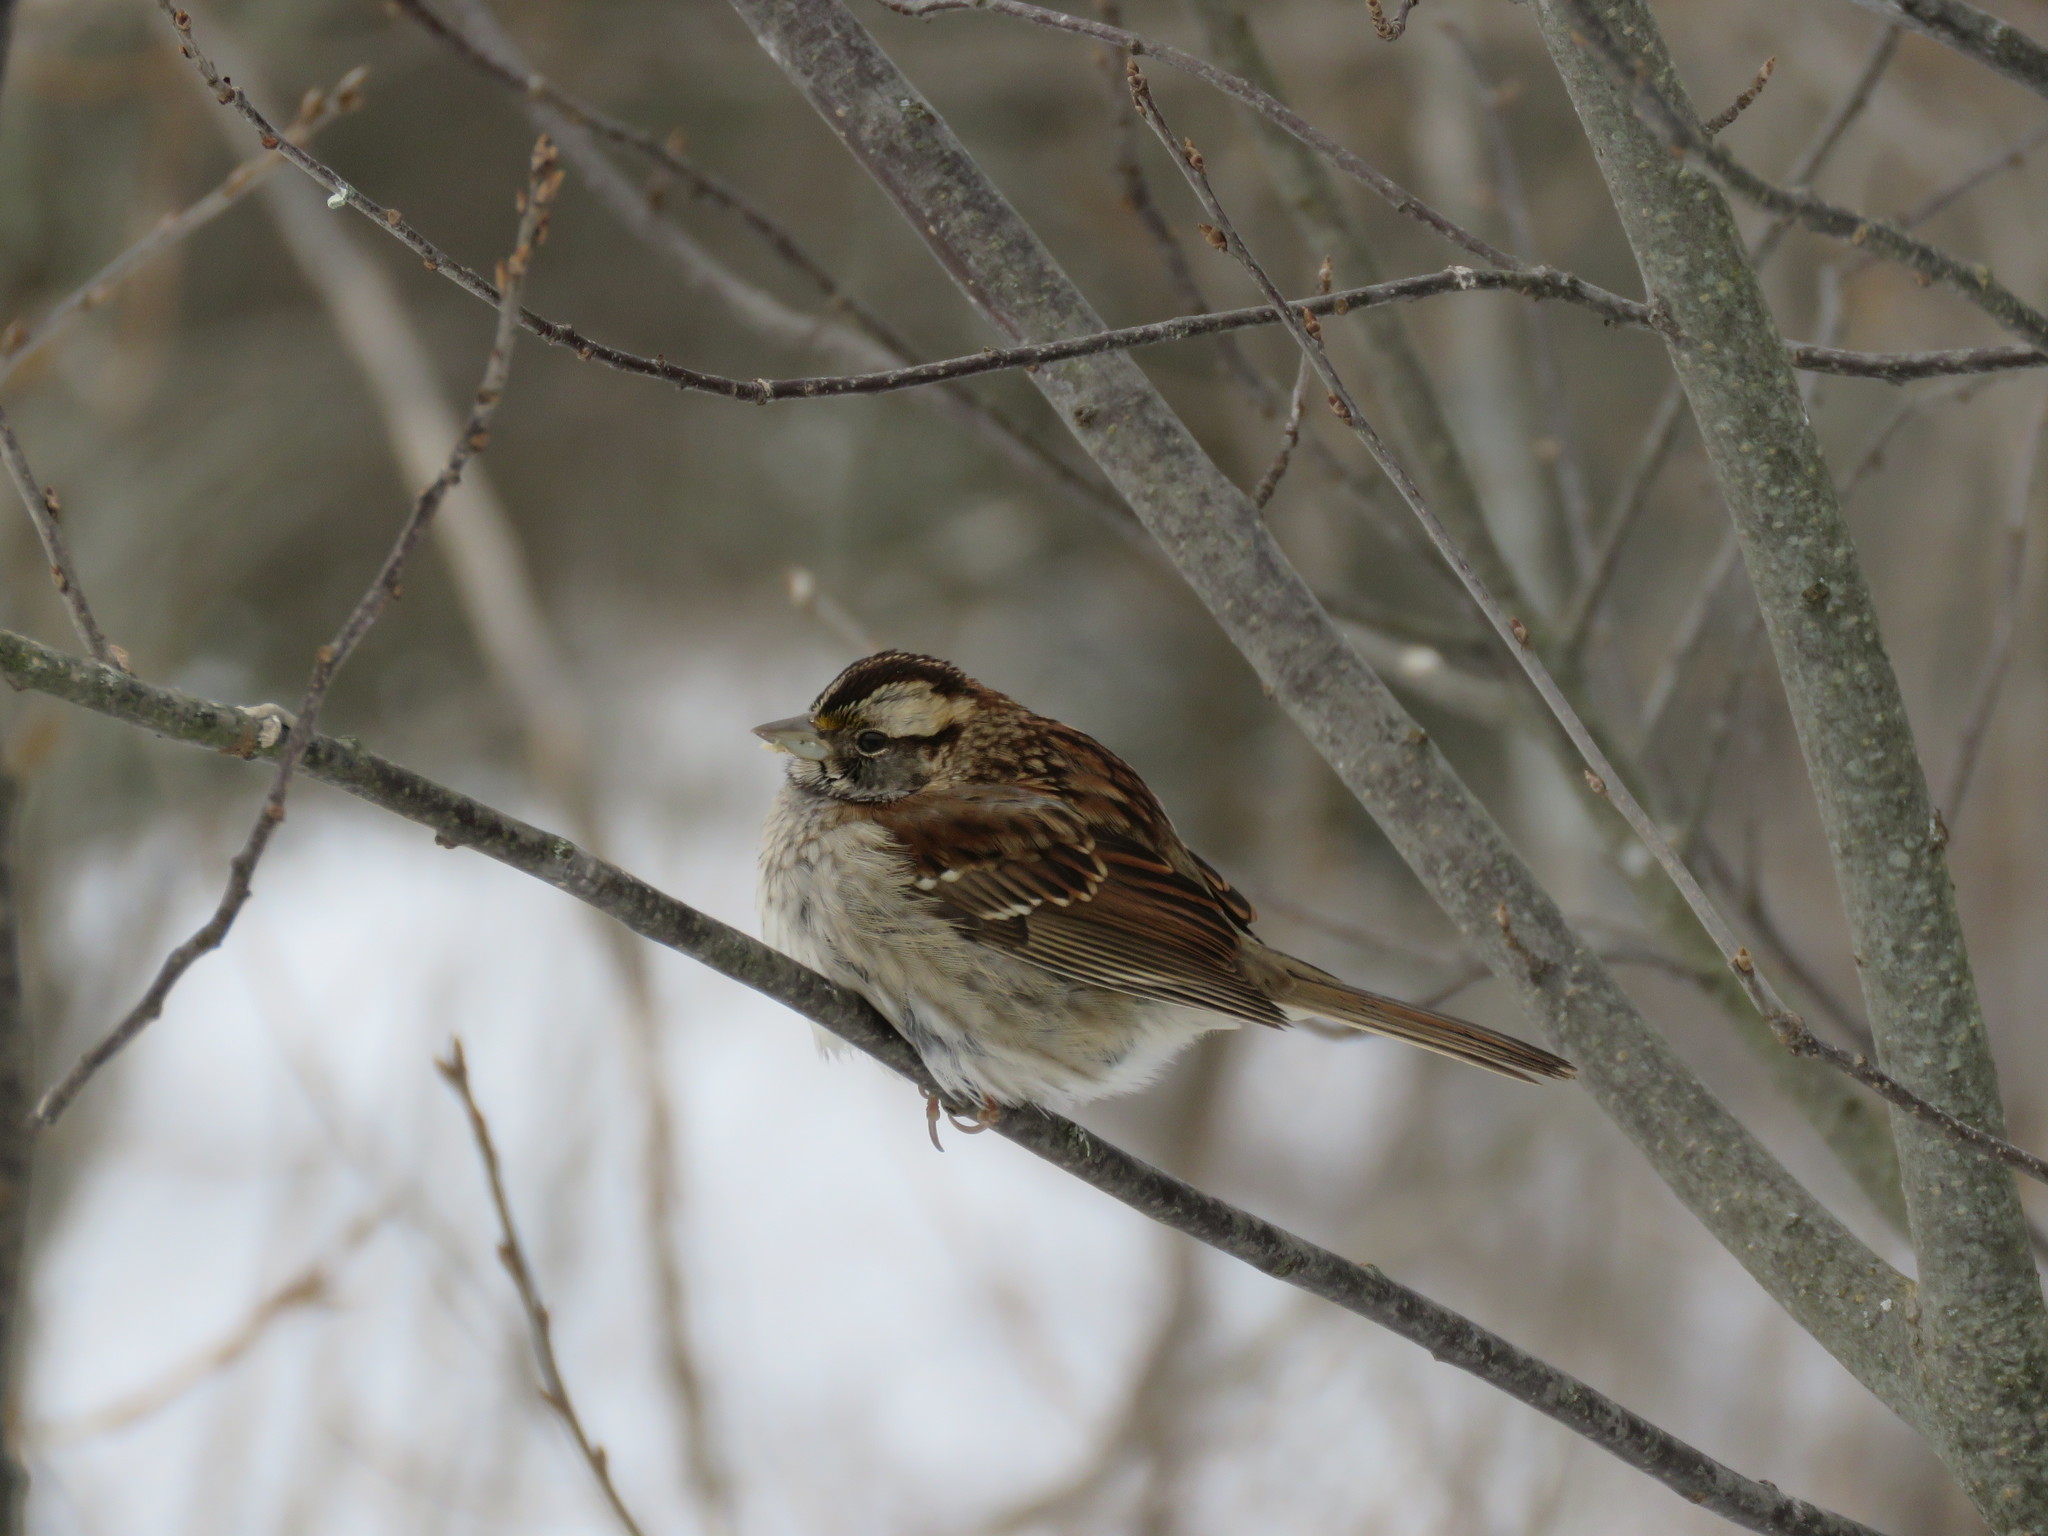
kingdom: Animalia
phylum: Chordata
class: Aves
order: Passeriformes
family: Passerellidae
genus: Zonotrichia
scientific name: Zonotrichia albicollis
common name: White-throated sparrow
